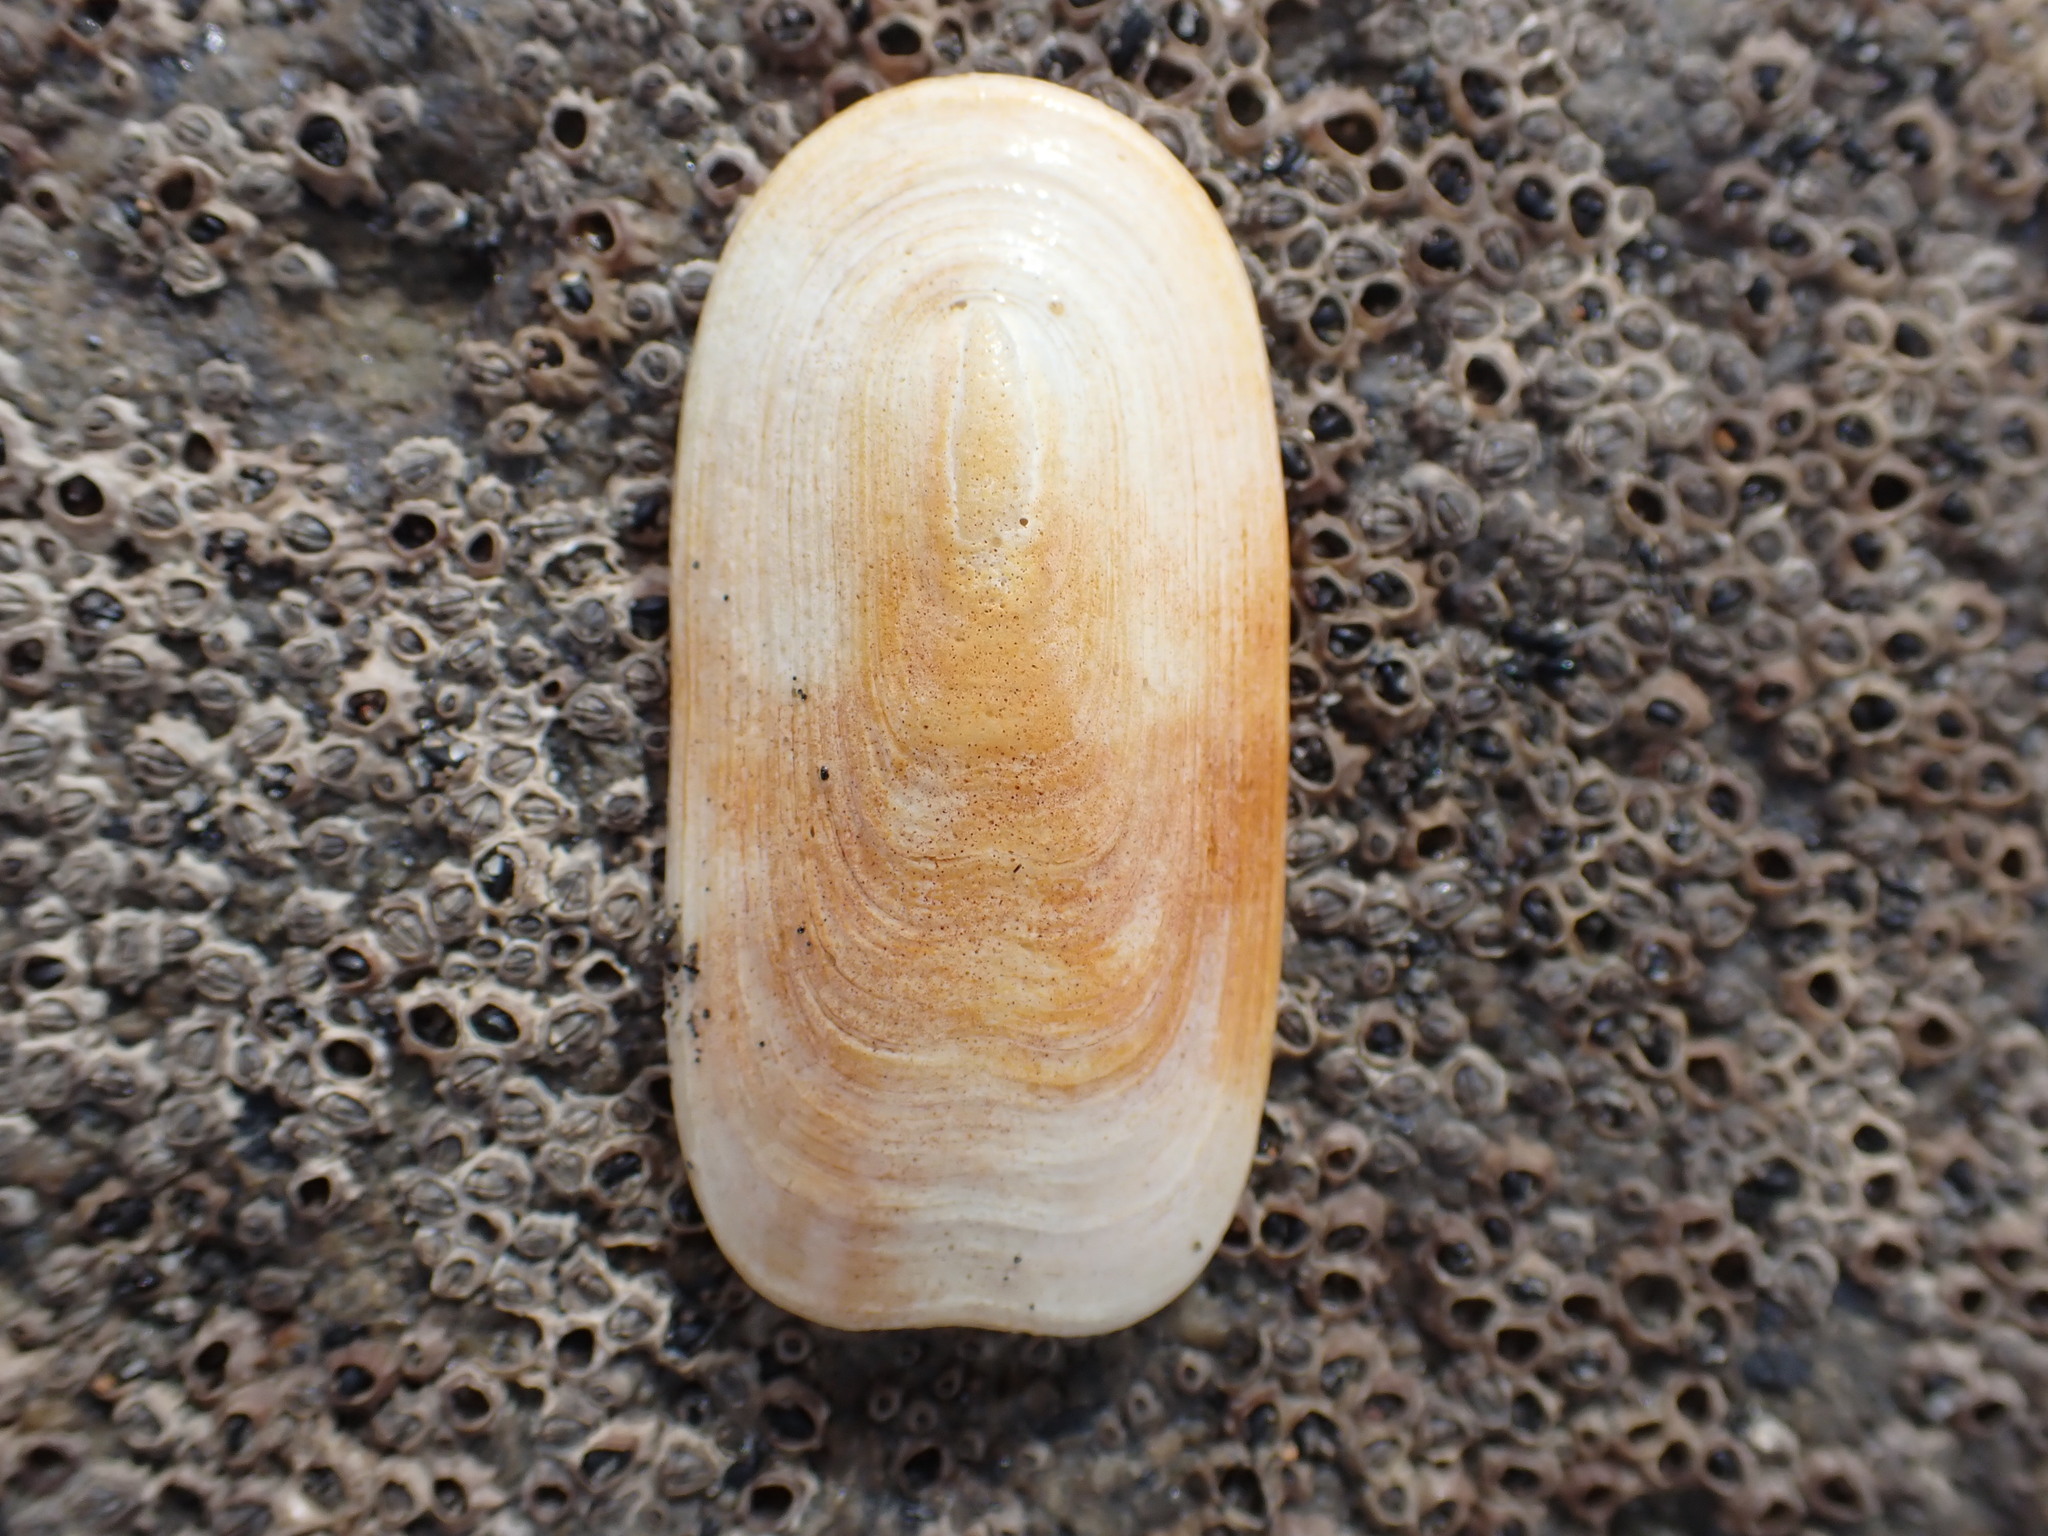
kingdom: Animalia
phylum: Mollusca
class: Gastropoda
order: Lepetellida
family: Fissurellidae
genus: Scutus
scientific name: Scutus breviculus
